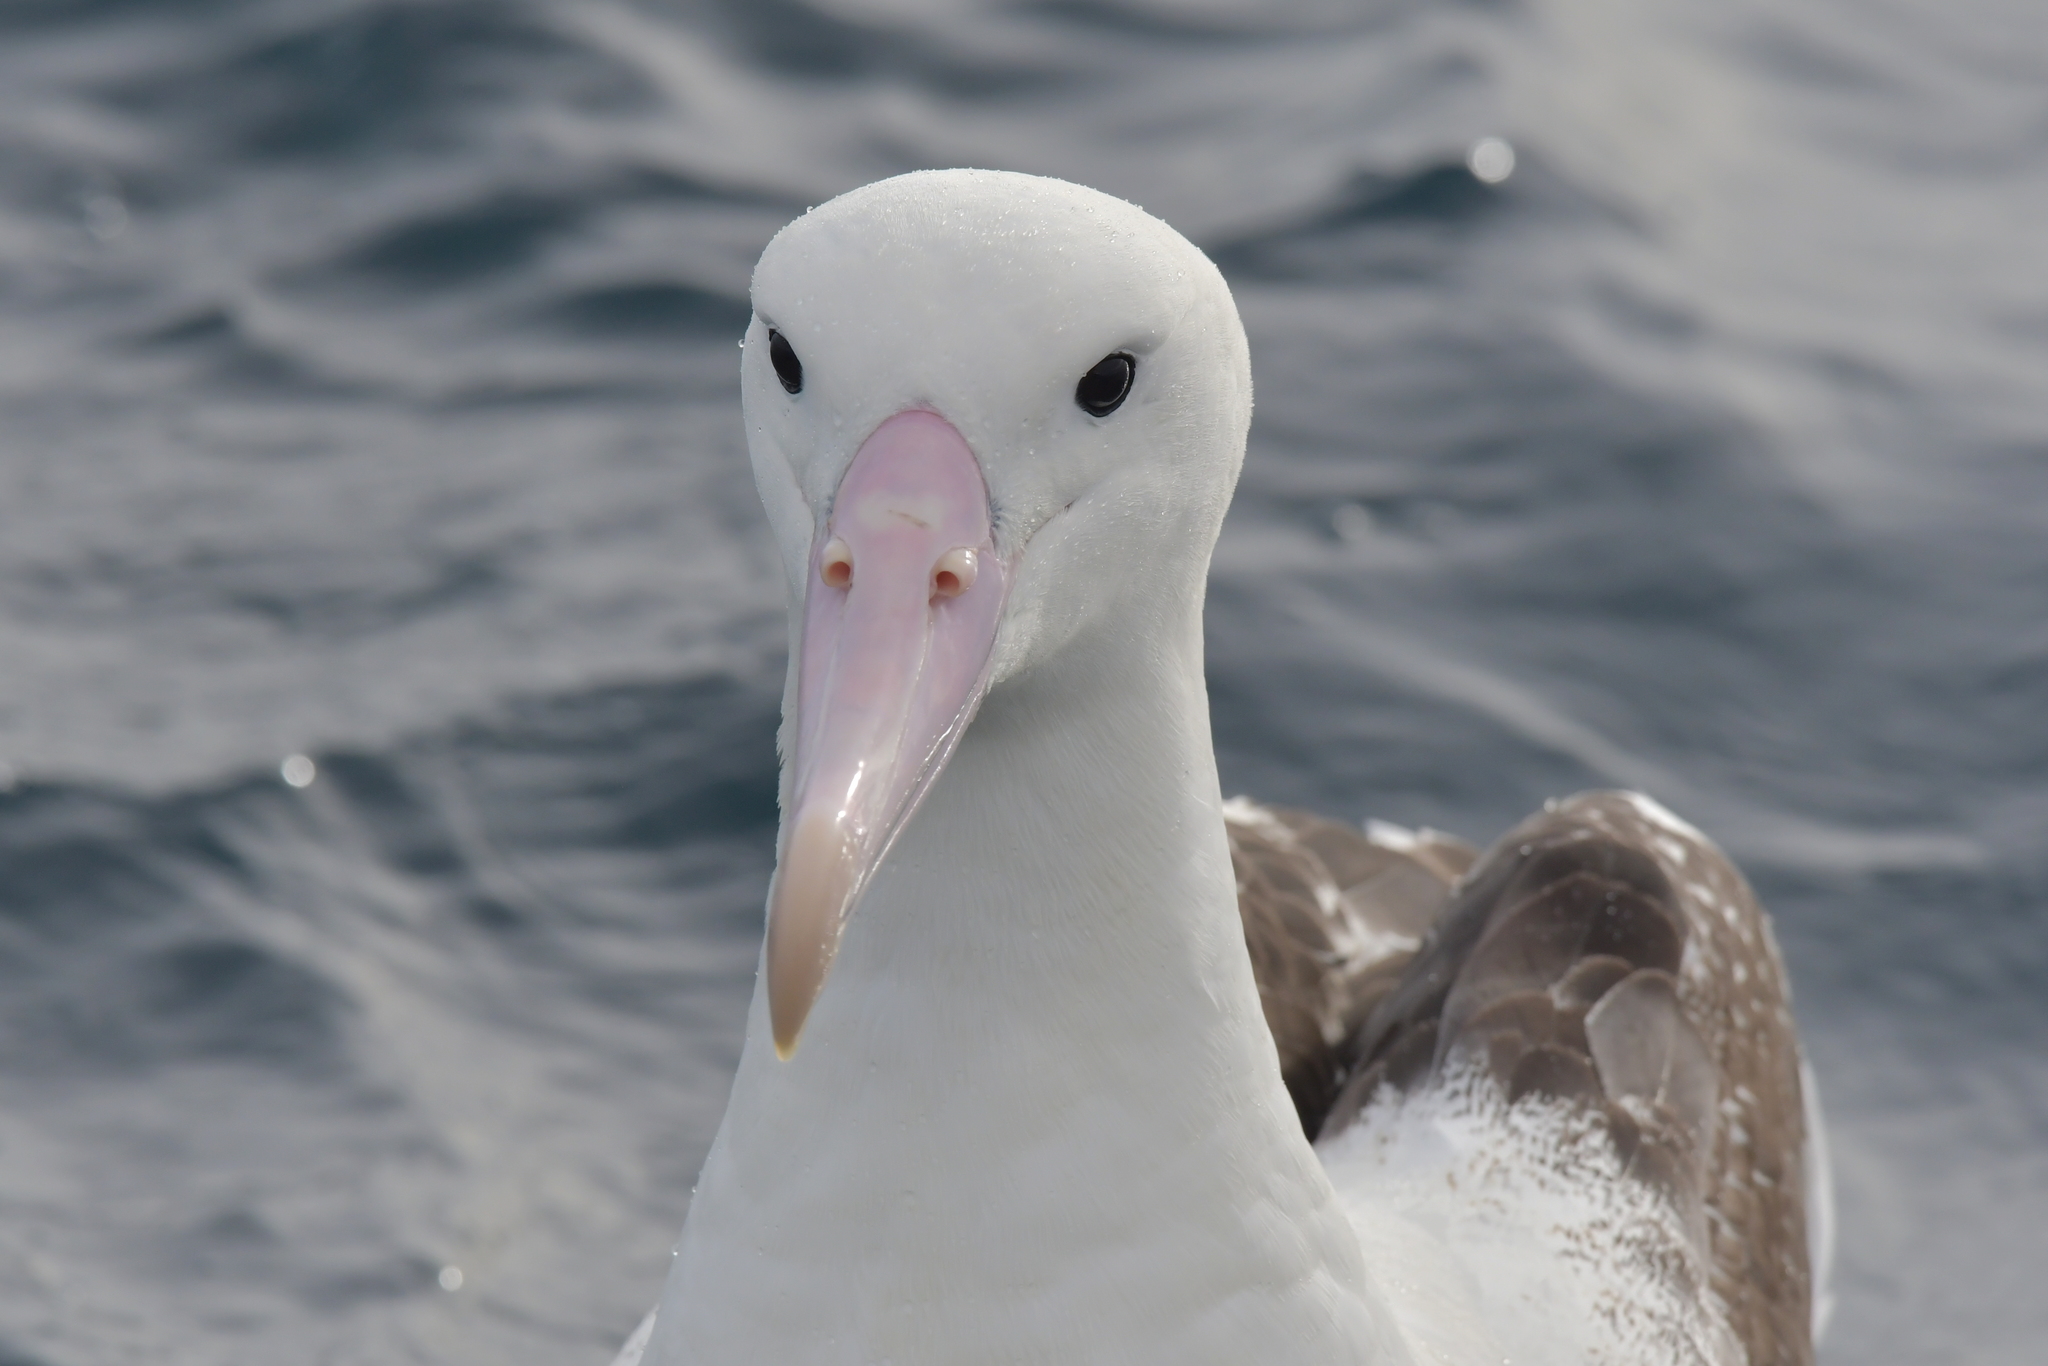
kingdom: Animalia
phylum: Chordata
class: Aves
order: Procellariiformes
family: Diomedeidae
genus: Diomedea
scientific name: Diomedea epomophora
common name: Southern royal albatross
